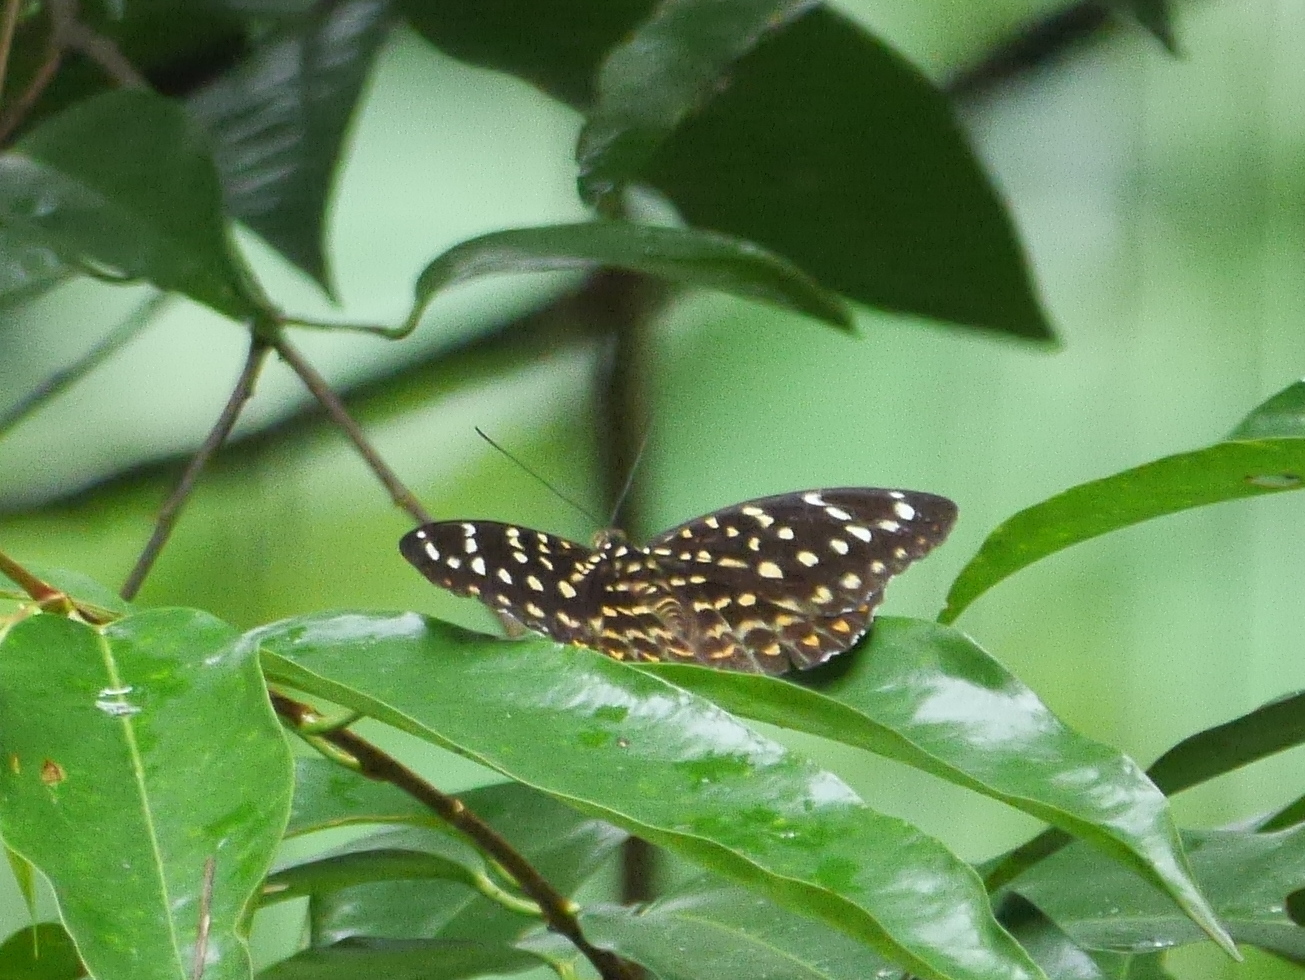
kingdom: Animalia
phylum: Arthropoda
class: Insecta
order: Lepidoptera
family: Nymphalidae
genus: Lexias
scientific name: Lexias dirtea
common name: Black-tipped archduke
